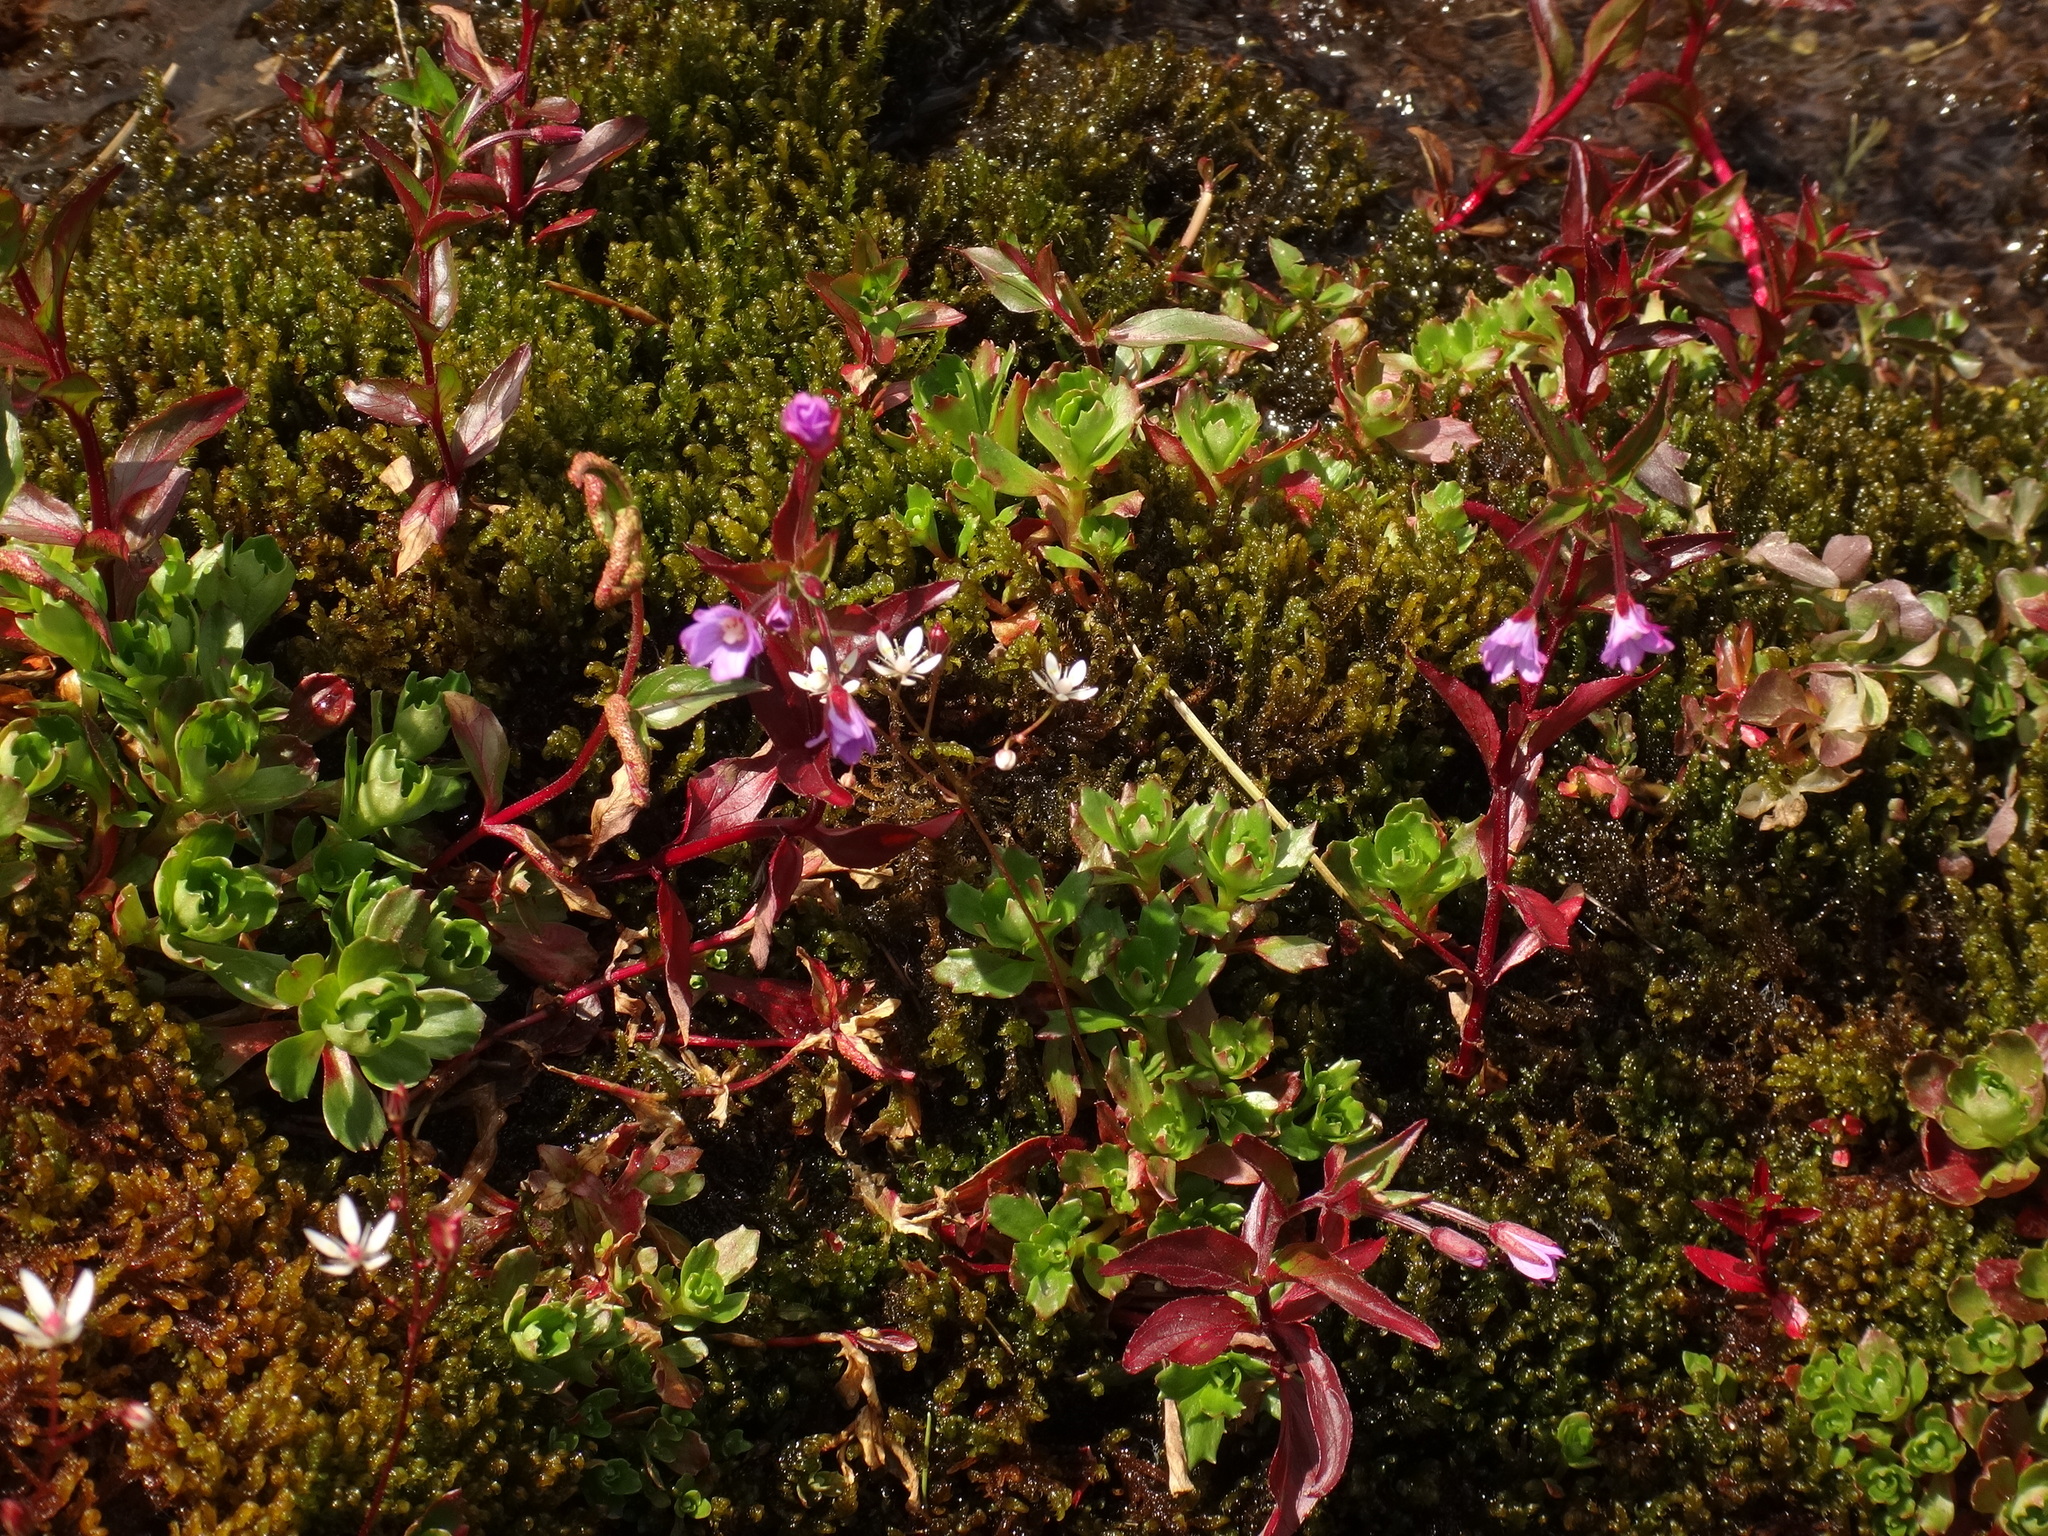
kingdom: Plantae
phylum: Tracheophyta
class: Magnoliopsida
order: Myrtales
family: Onagraceae
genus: Epilobium
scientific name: Epilobium palustre
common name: Marsh willowherb
